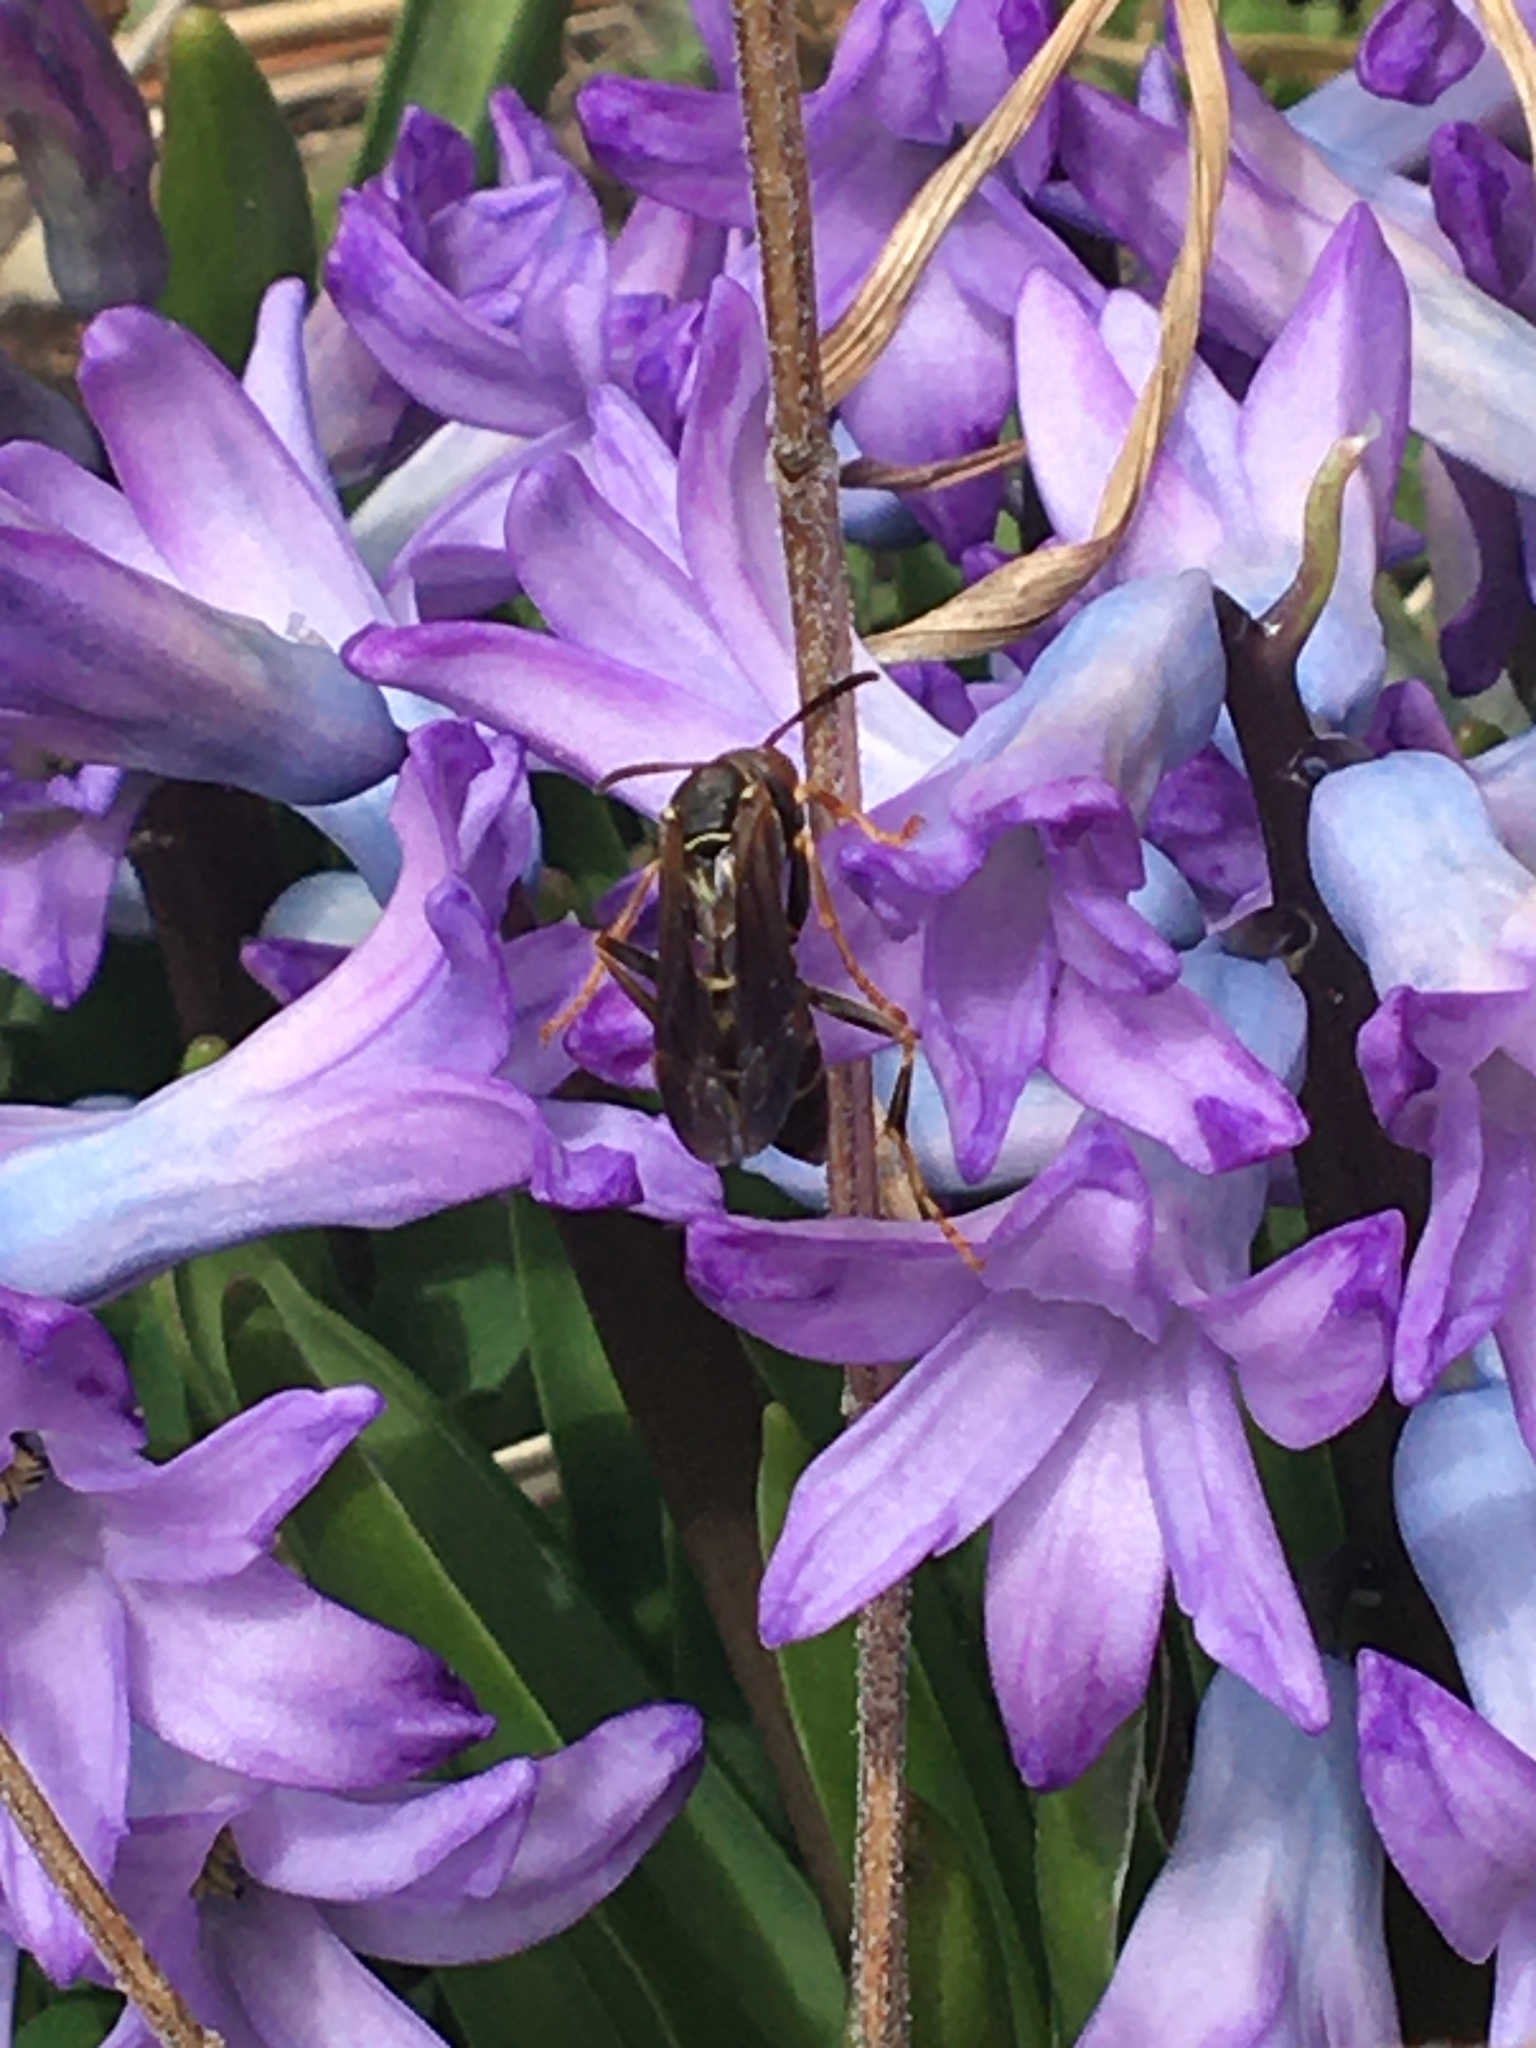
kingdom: Animalia
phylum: Arthropoda
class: Insecta
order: Hymenoptera
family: Eumenidae
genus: Polistes
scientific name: Polistes fuscatus
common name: Dark paper wasp
